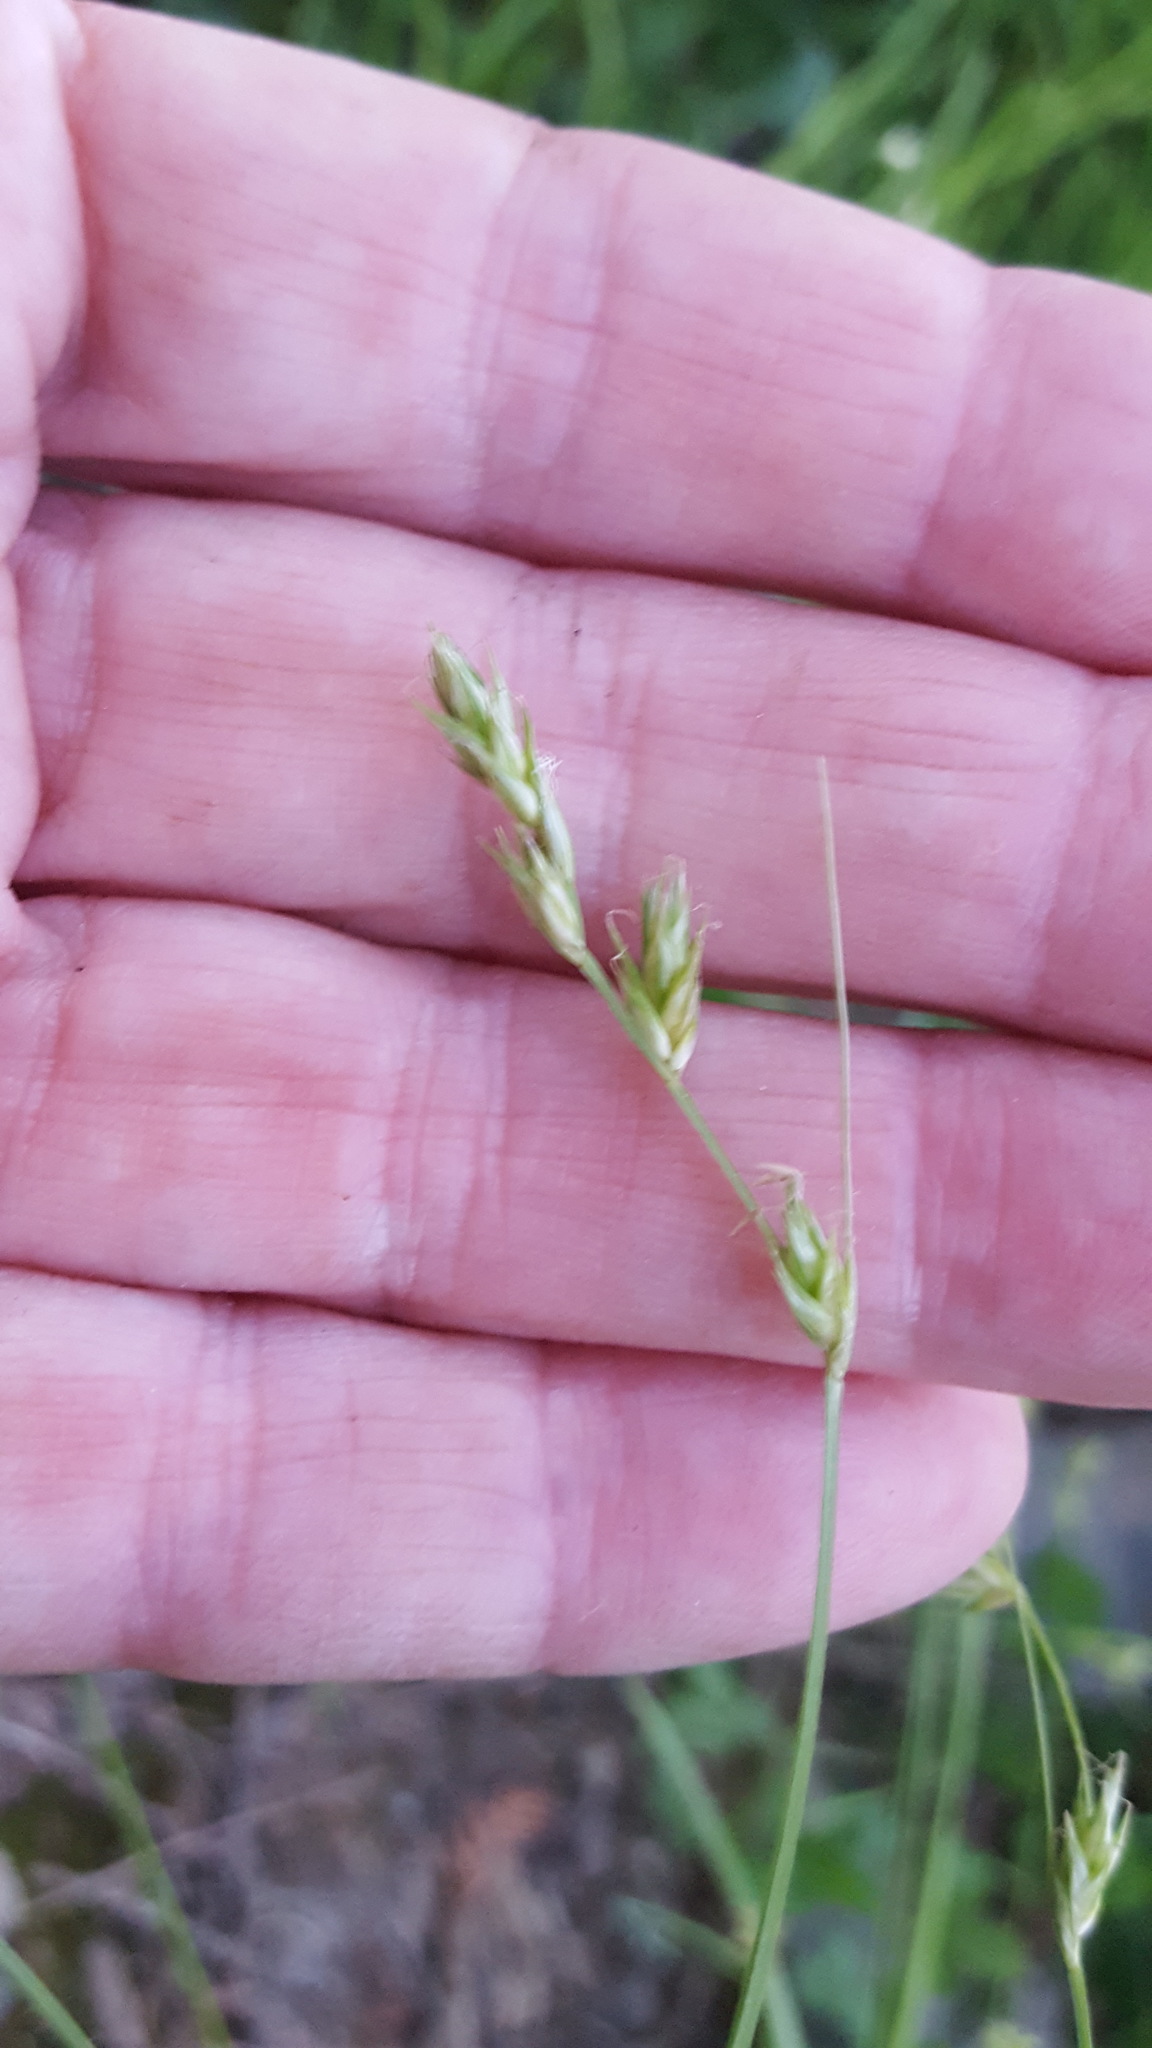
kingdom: Plantae
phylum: Tracheophyta
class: Liliopsida
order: Poales
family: Cyperaceae
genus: Carex
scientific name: Carex deweyana
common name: Dewey's sedge
